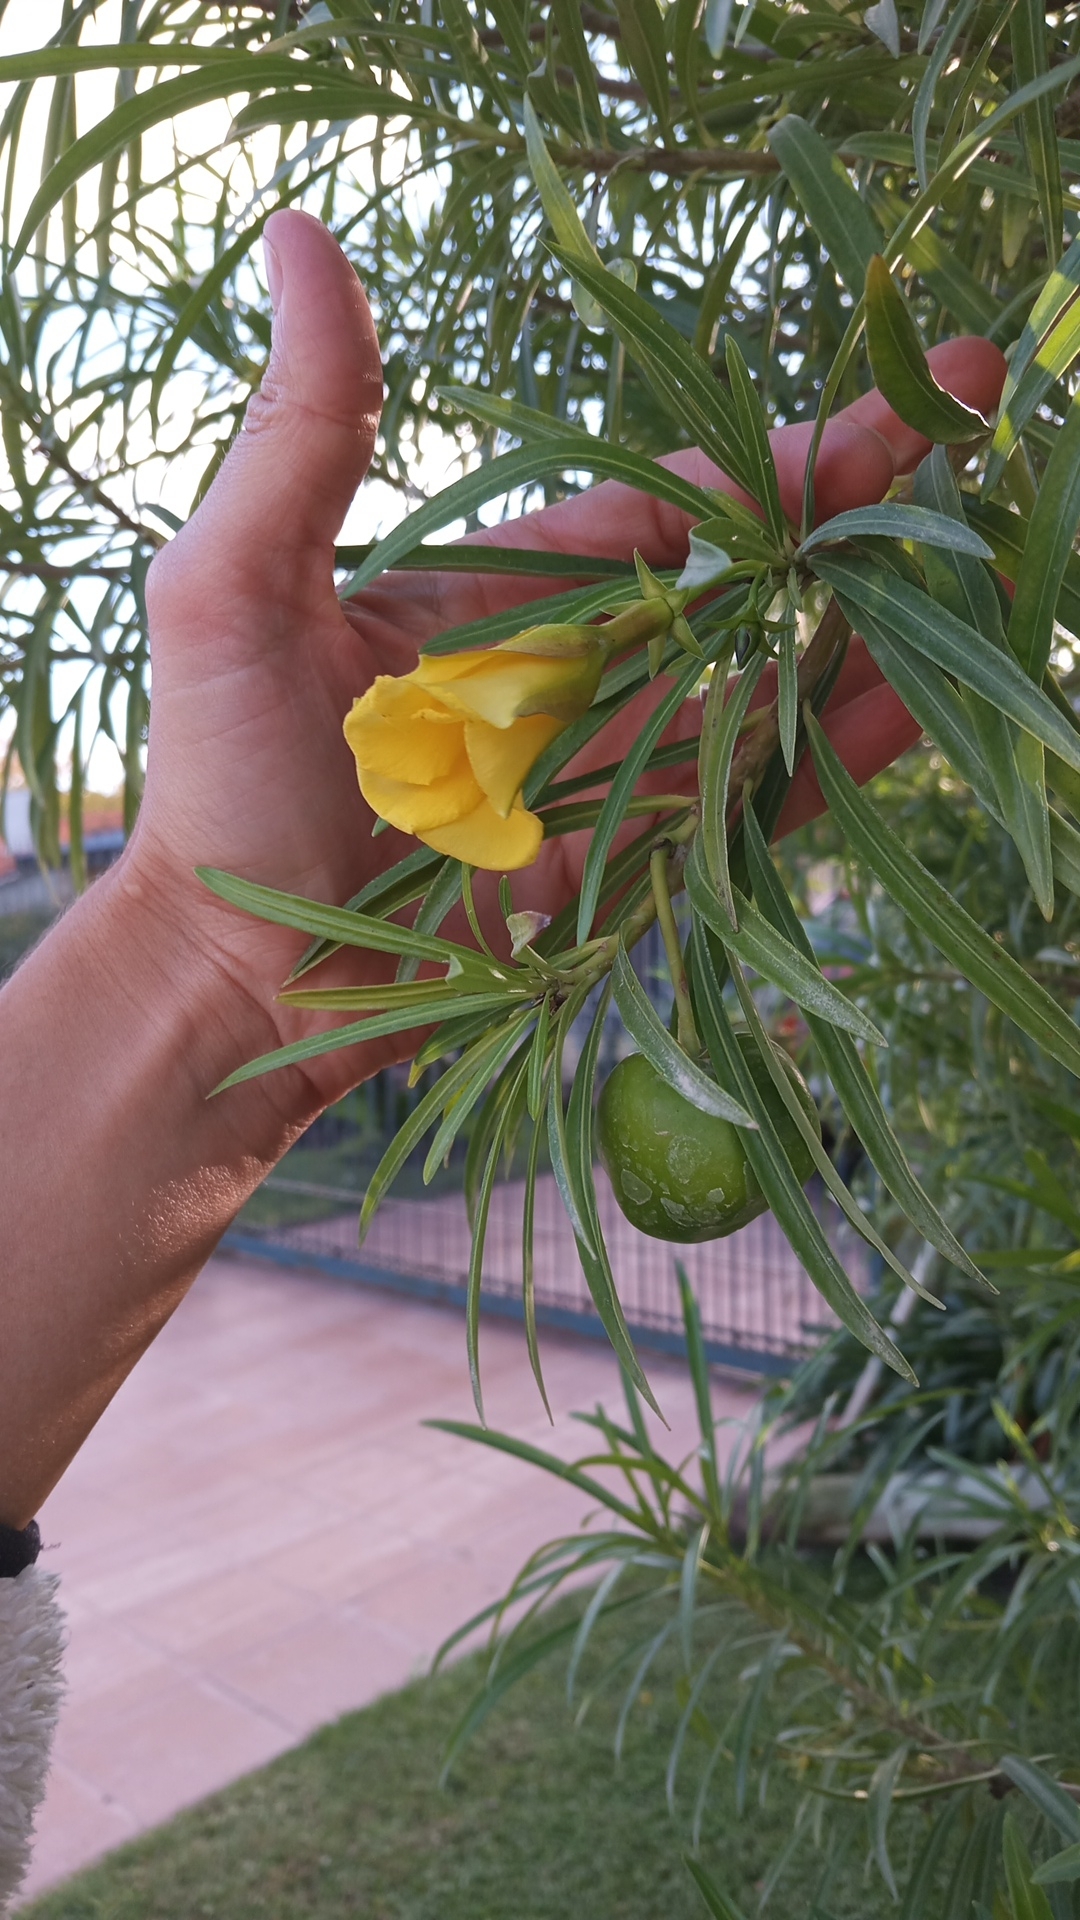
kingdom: Plantae
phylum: Tracheophyta
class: Magnoliopsida
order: Gentianales
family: Apocynaceae
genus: Cascabela
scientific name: Cascabela thevetia
